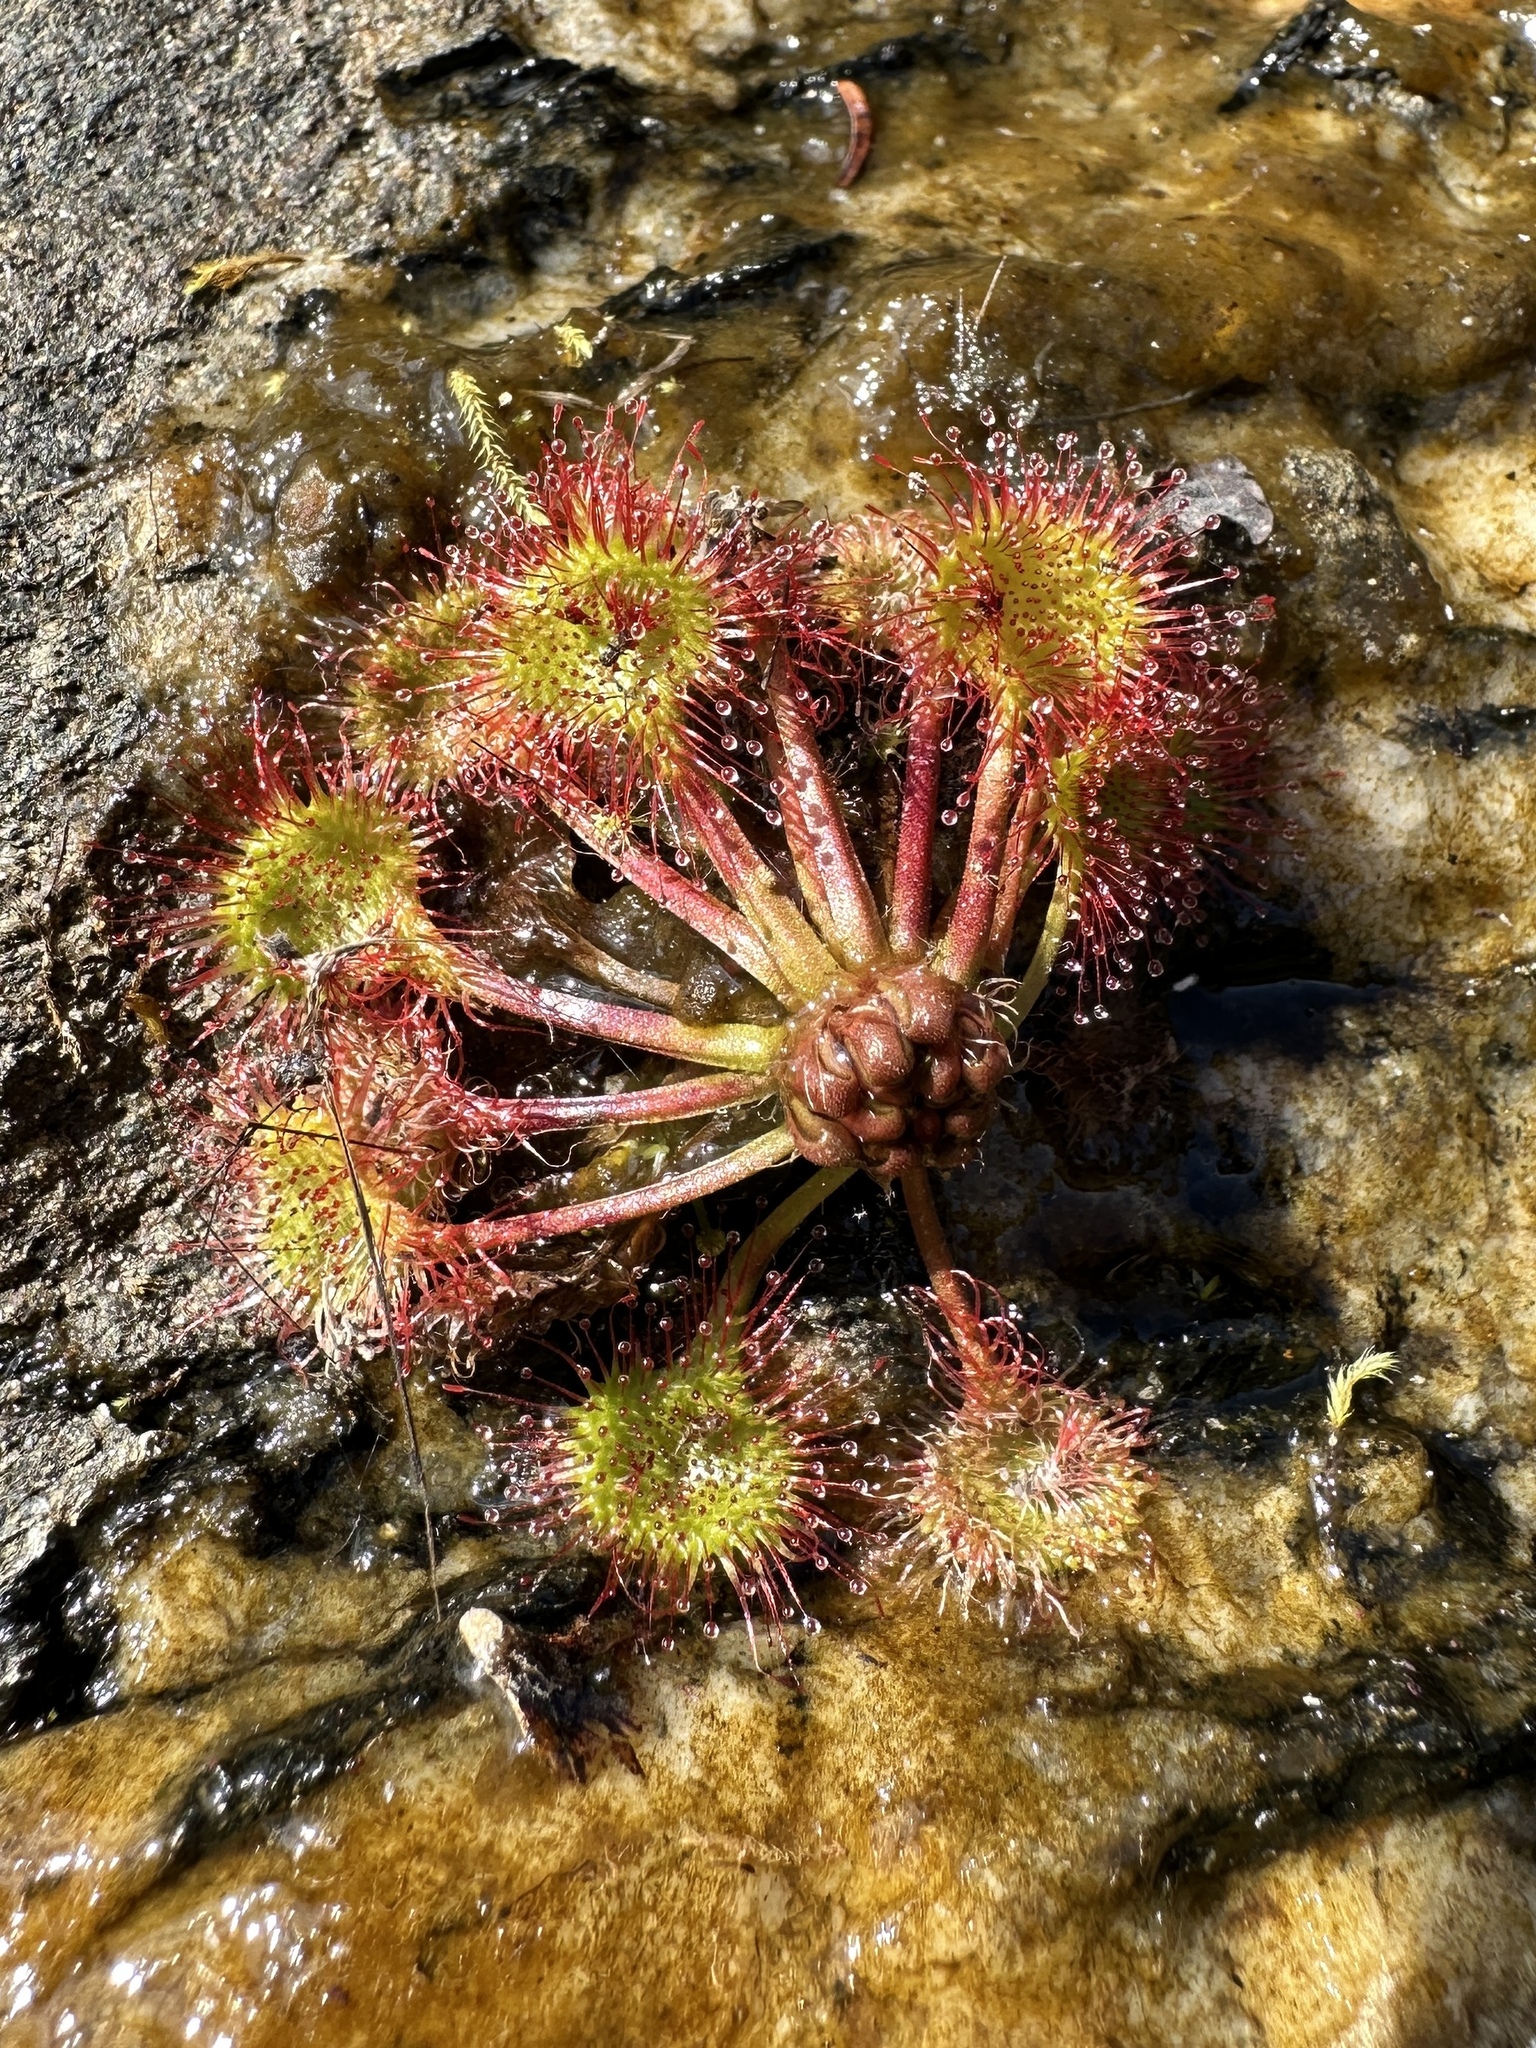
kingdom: Plantae
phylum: Tracheophyta
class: Magnoliopsida
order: Caryophyllales
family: Droseraceae
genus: Drosera
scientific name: Drosera rotundifolia
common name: Round-leaved sundew
